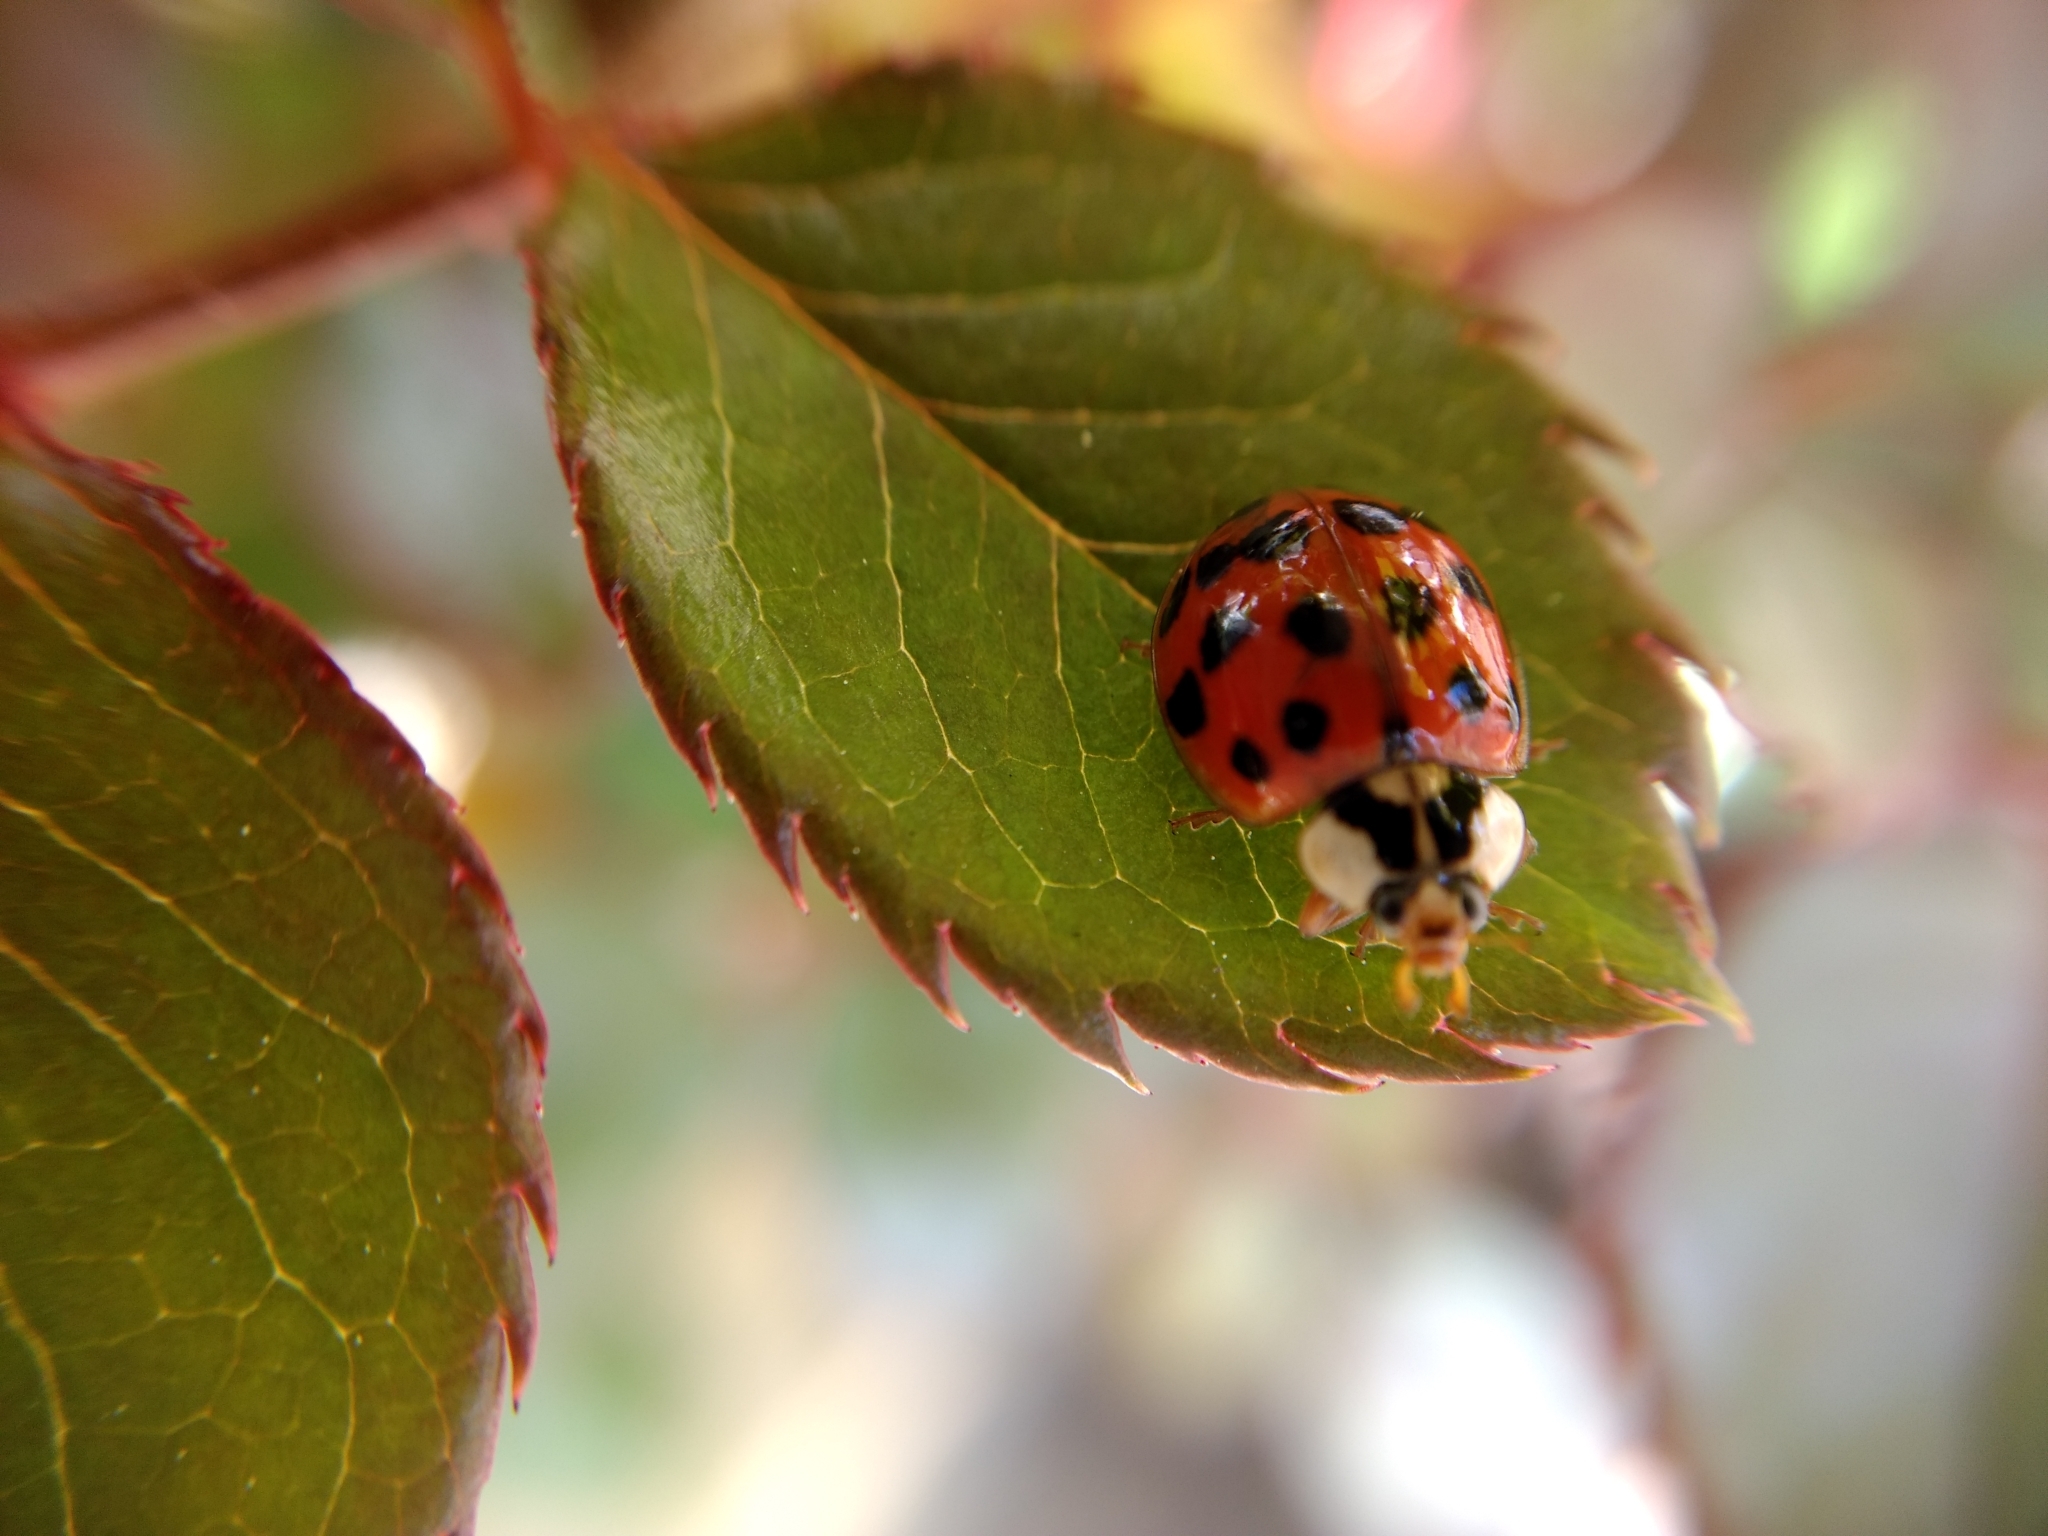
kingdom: Animalia
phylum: Arthropoda
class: Insecta
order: Coleoptera
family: Coccinellidae
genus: Harmonia
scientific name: Harmonia axyridis
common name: Harlequin ladybird
